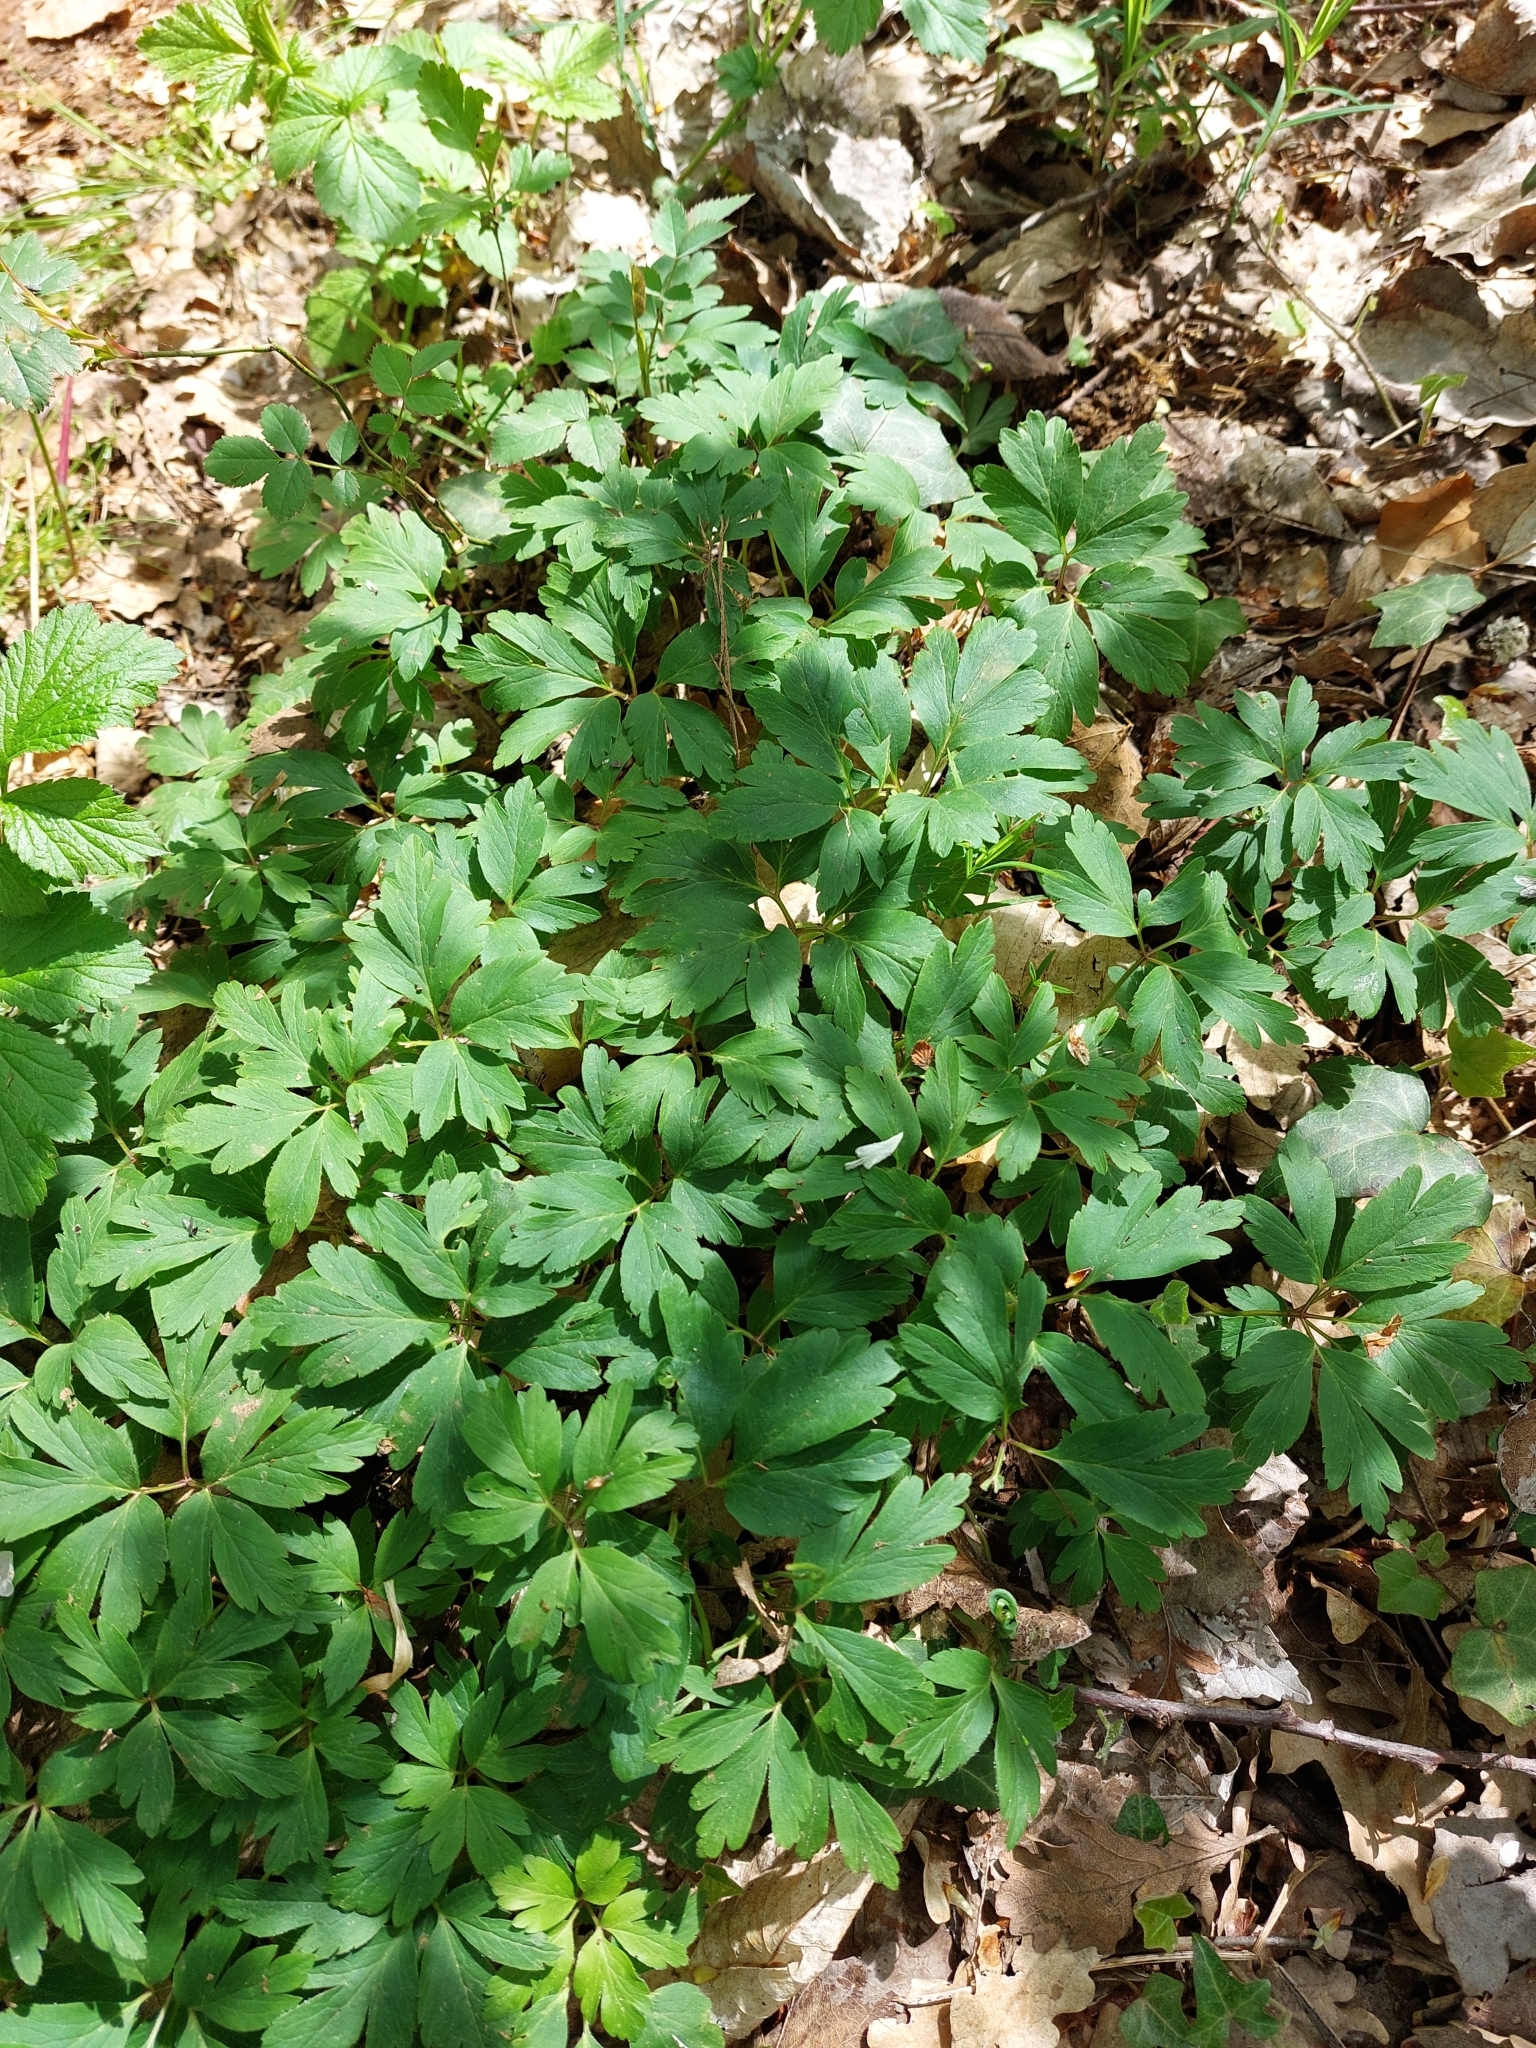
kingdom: Plantae
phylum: Tracheophyta
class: Magnoliopsida
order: Ranunculales
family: Ranunculaceae
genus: Anemone
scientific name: Anemone nemorosa
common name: Wood anemone
